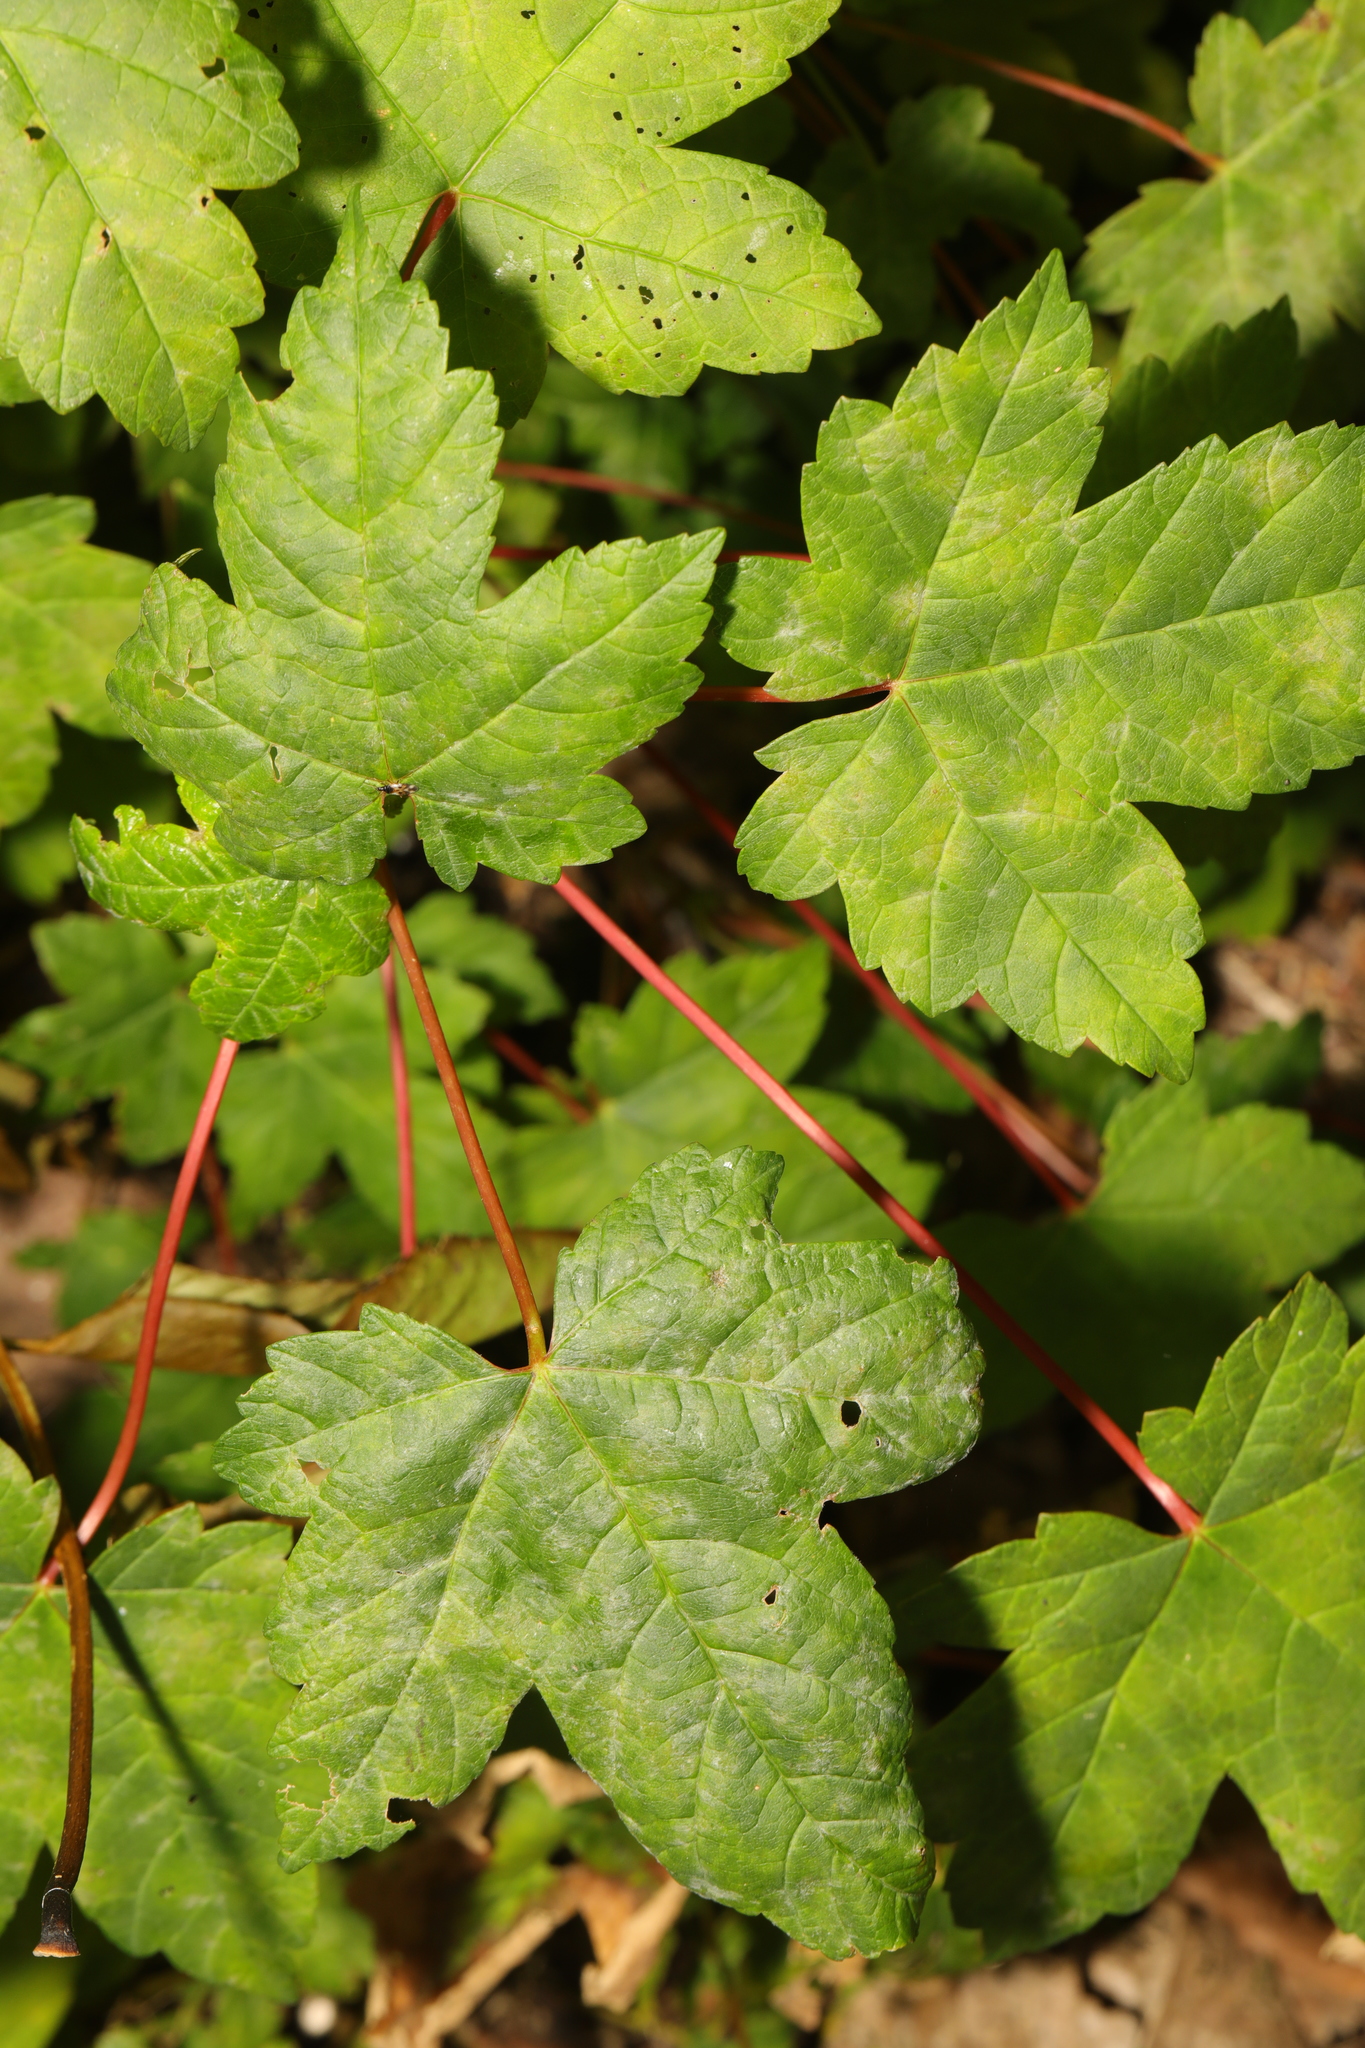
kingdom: Fungi
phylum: Ascomycota
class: Leotiomycetes
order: Helotiales
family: Erysiphaceae
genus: Sawadaea
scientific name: Sawadaea bicornis
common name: Maple mildew
